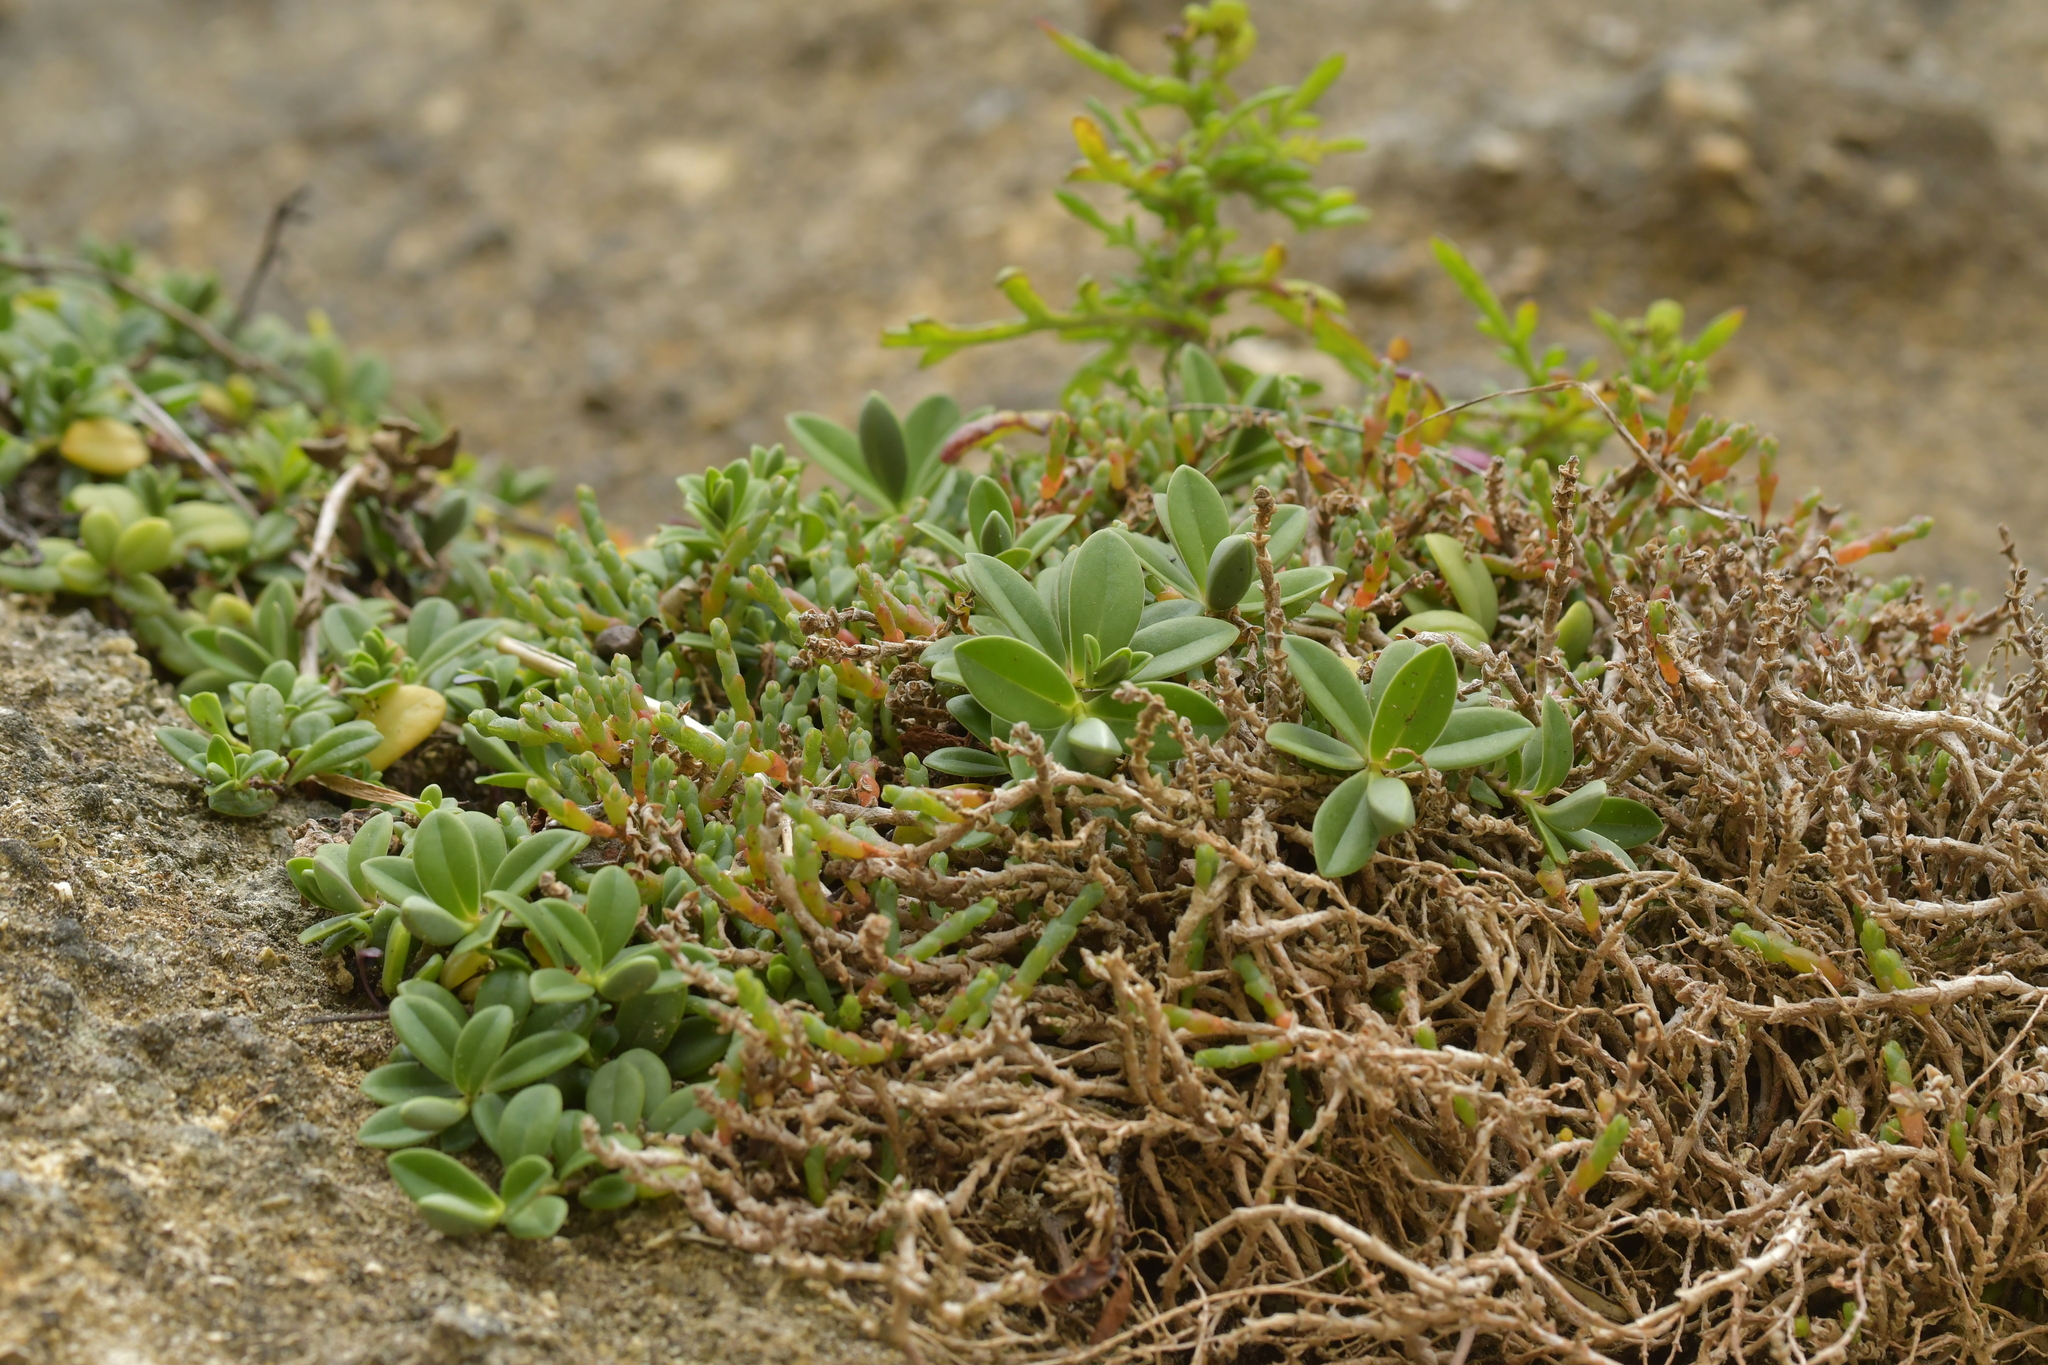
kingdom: Plantae
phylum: Tracheophyta
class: Magnoliopsida
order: Lamiales
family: Plantaginaceae
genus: Veronica
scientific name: Veronica chathamica
